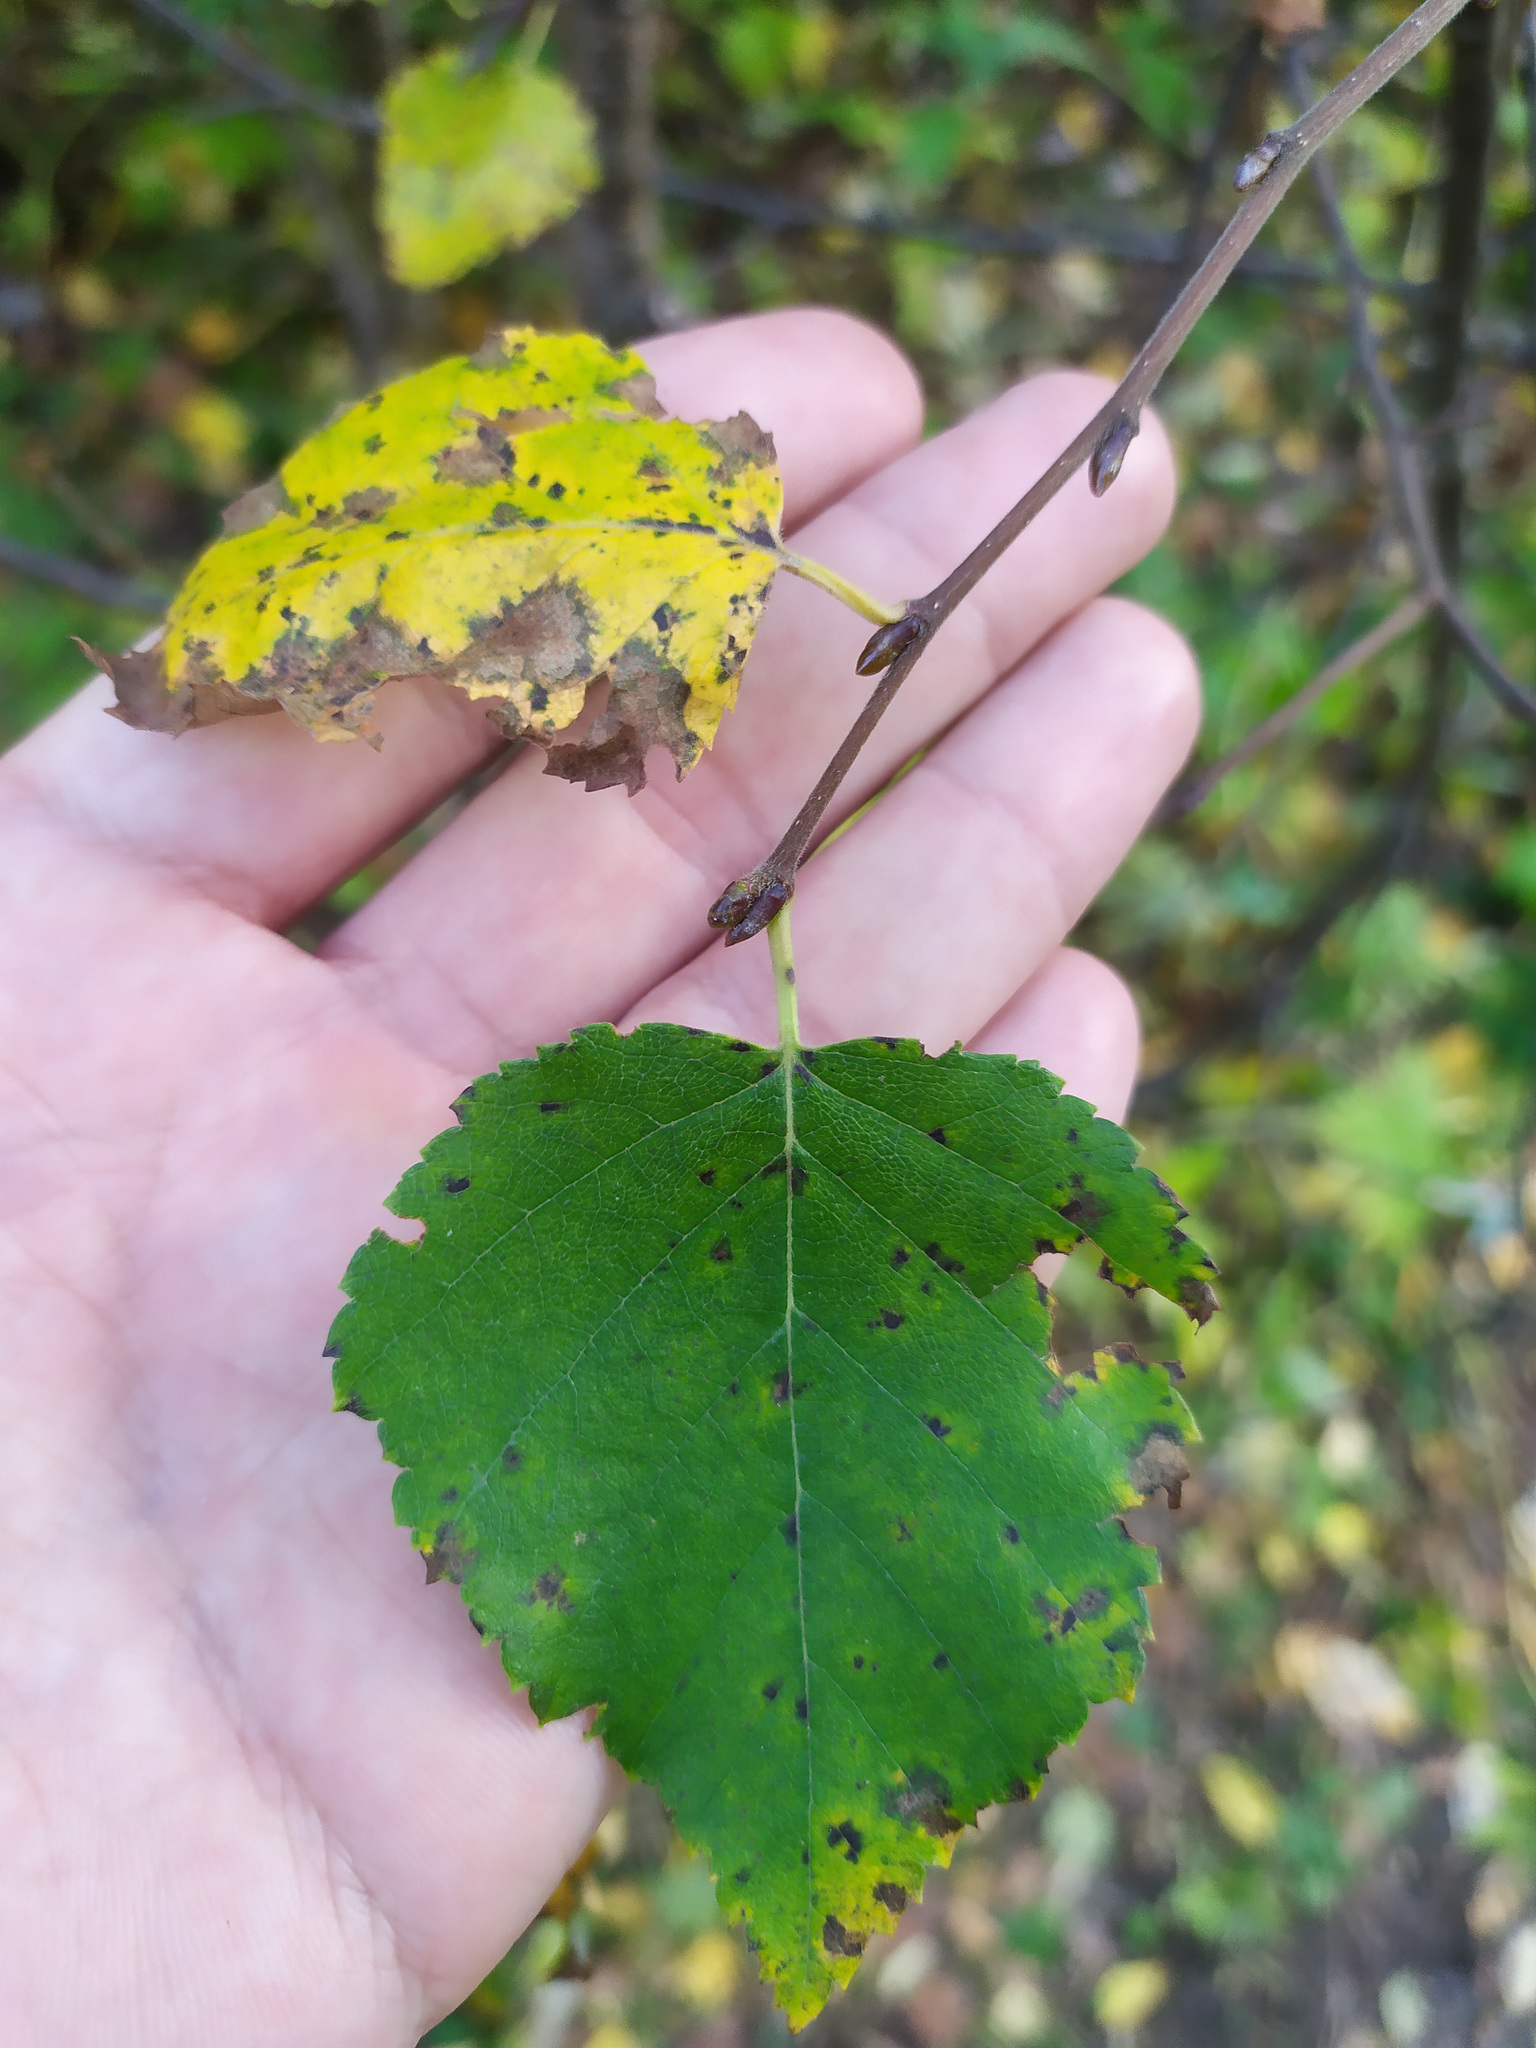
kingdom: Plantae
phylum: Tracheophyta
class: Magnoliopsida
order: Fagales
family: Betulaceae
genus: Betula
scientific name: Betula pendula
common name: Silver birch
